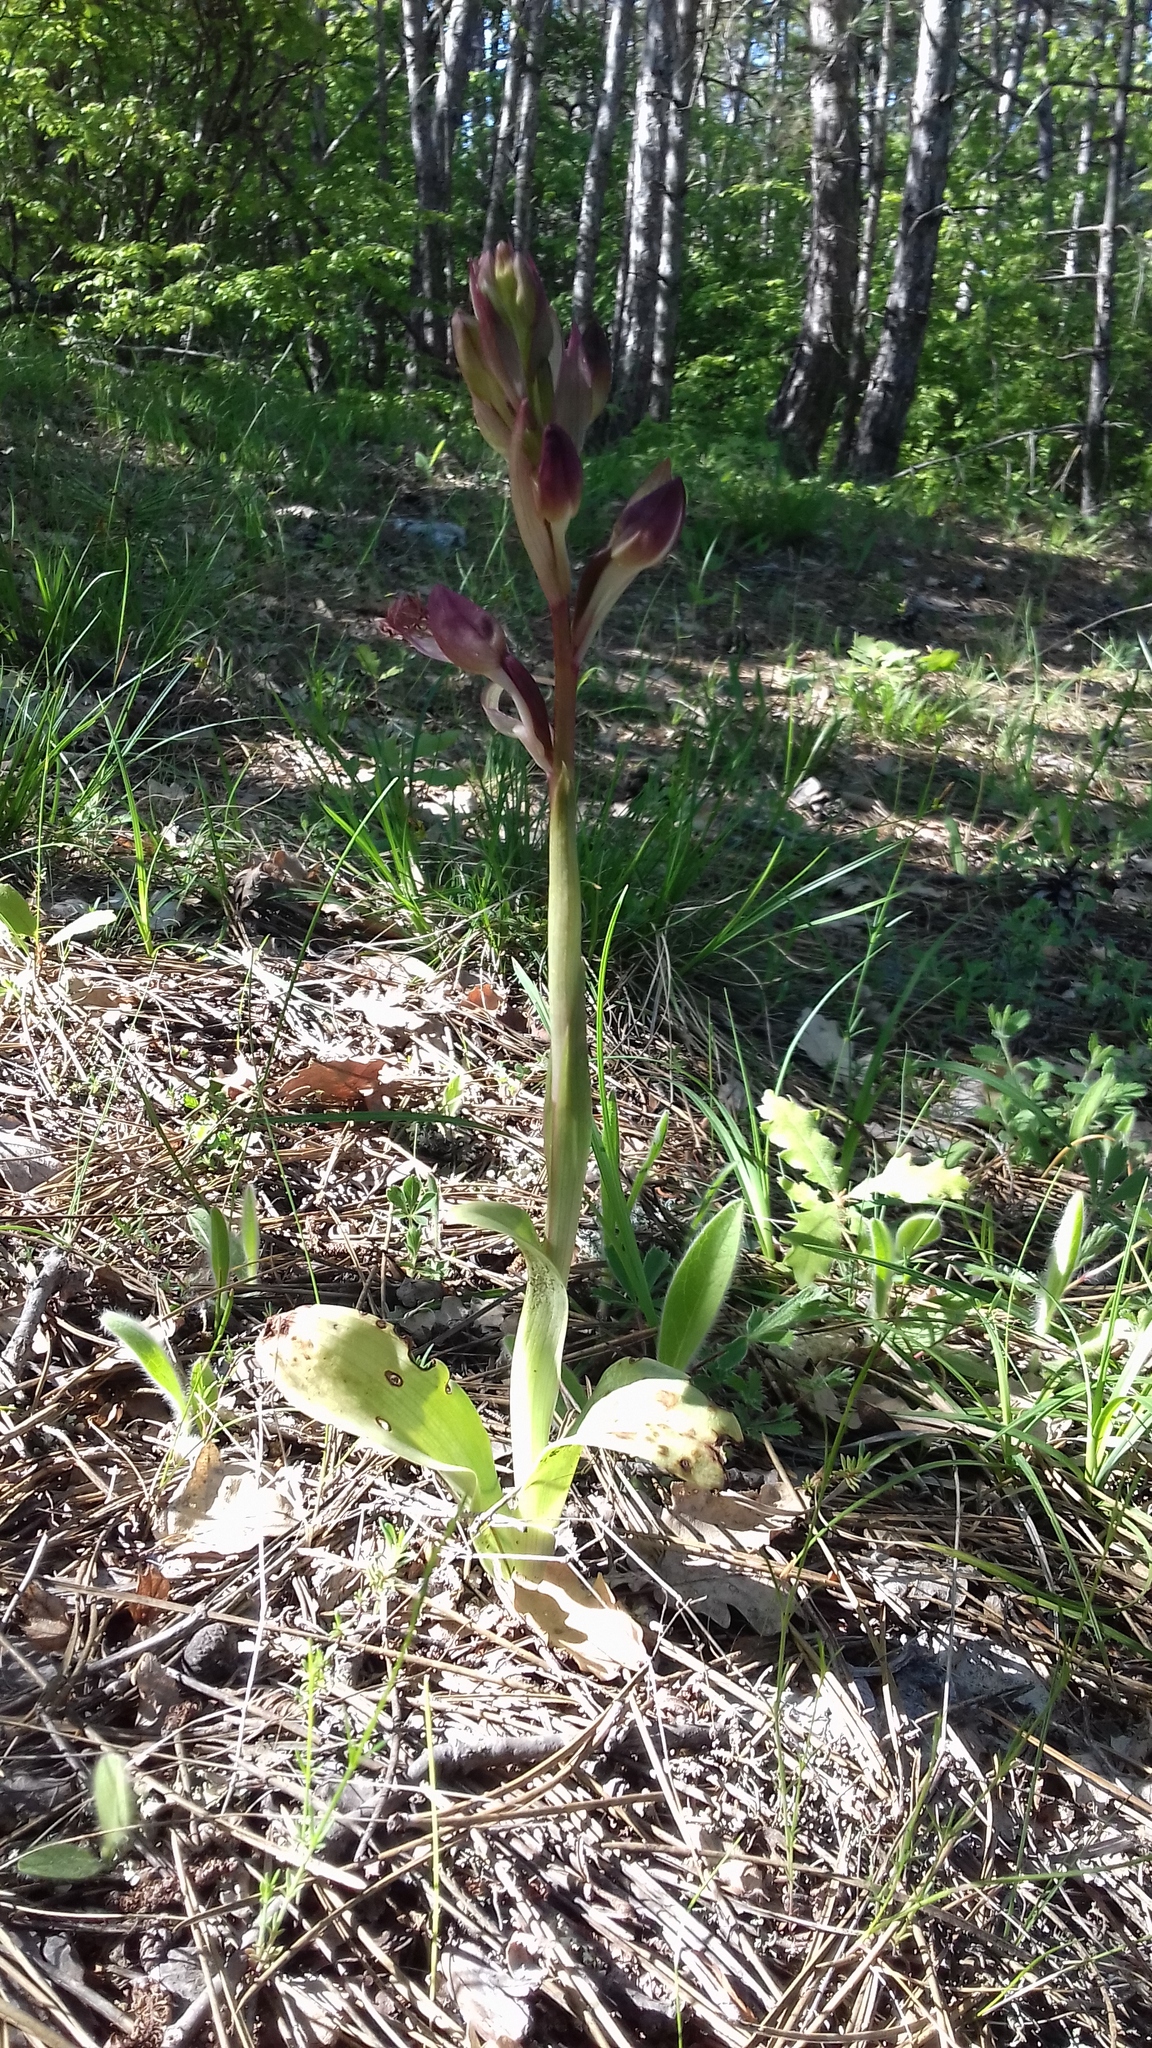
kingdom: Plantae
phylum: Tracheophyta
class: Liliopsida
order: Asparagales
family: Orchidaceae
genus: Himantoglossum
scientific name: Himantoglossum comperianum
